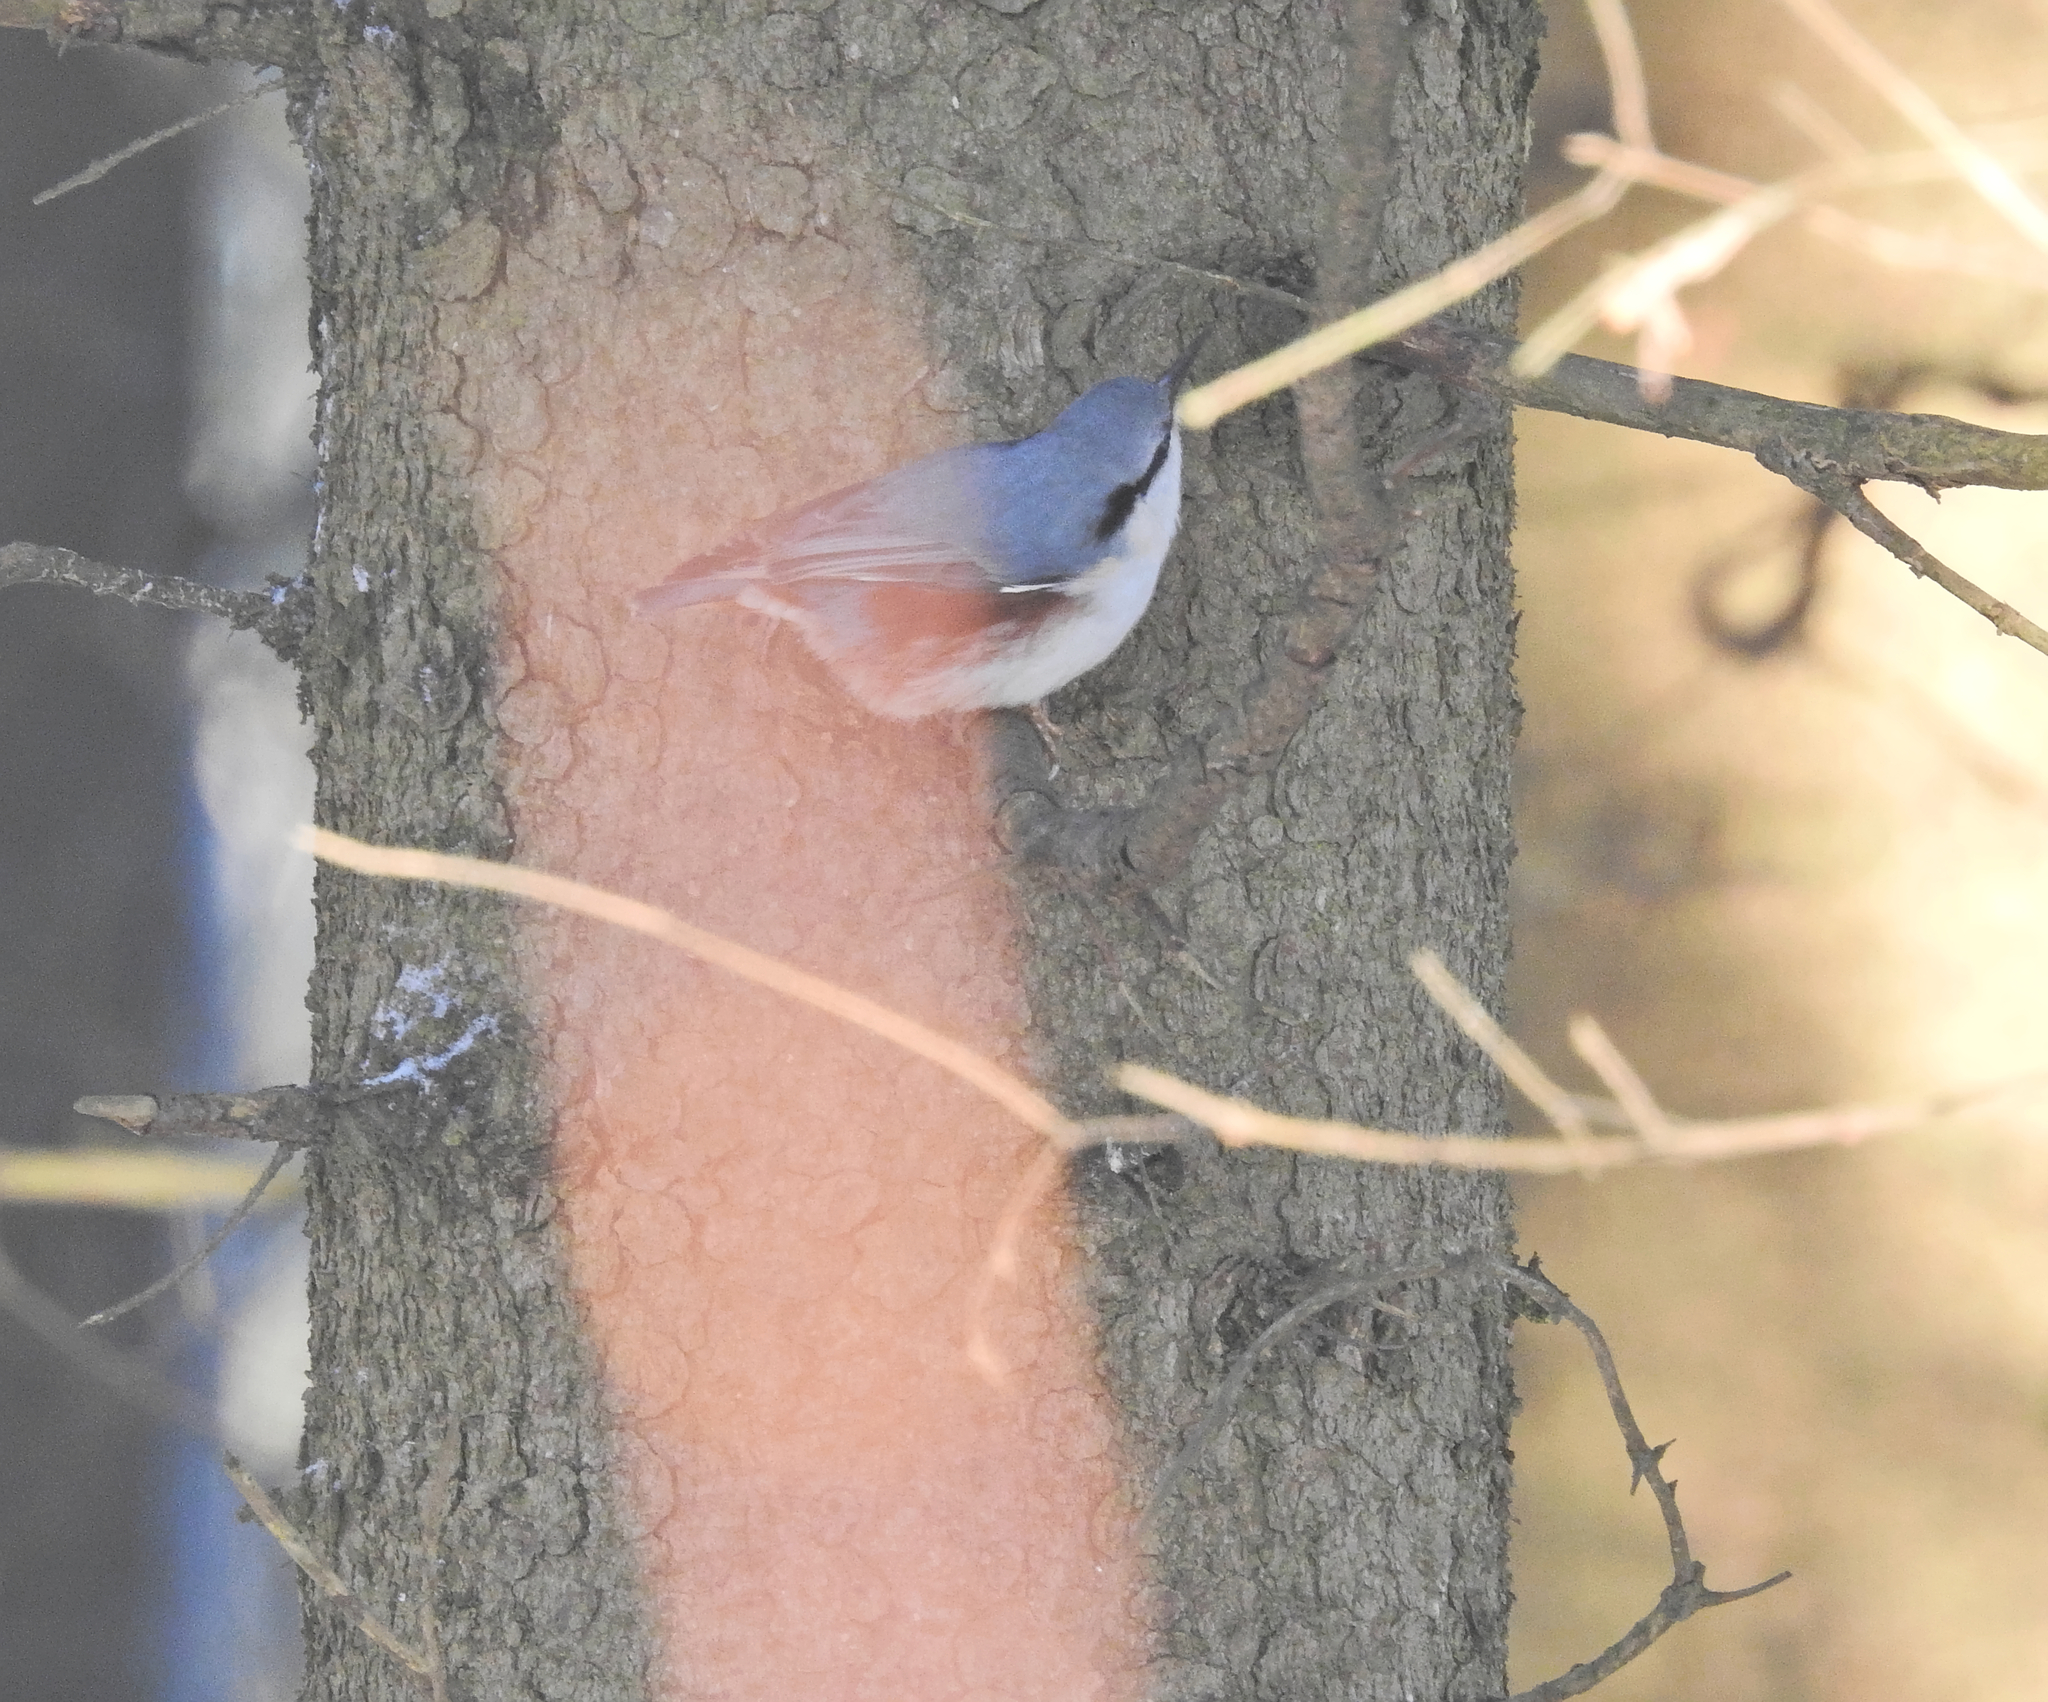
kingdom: Animalia
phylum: Chordata
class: Aves
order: Passeriformes
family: Sittidae
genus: Sitta
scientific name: Sitta europaea
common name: Eurasian nuthatch
